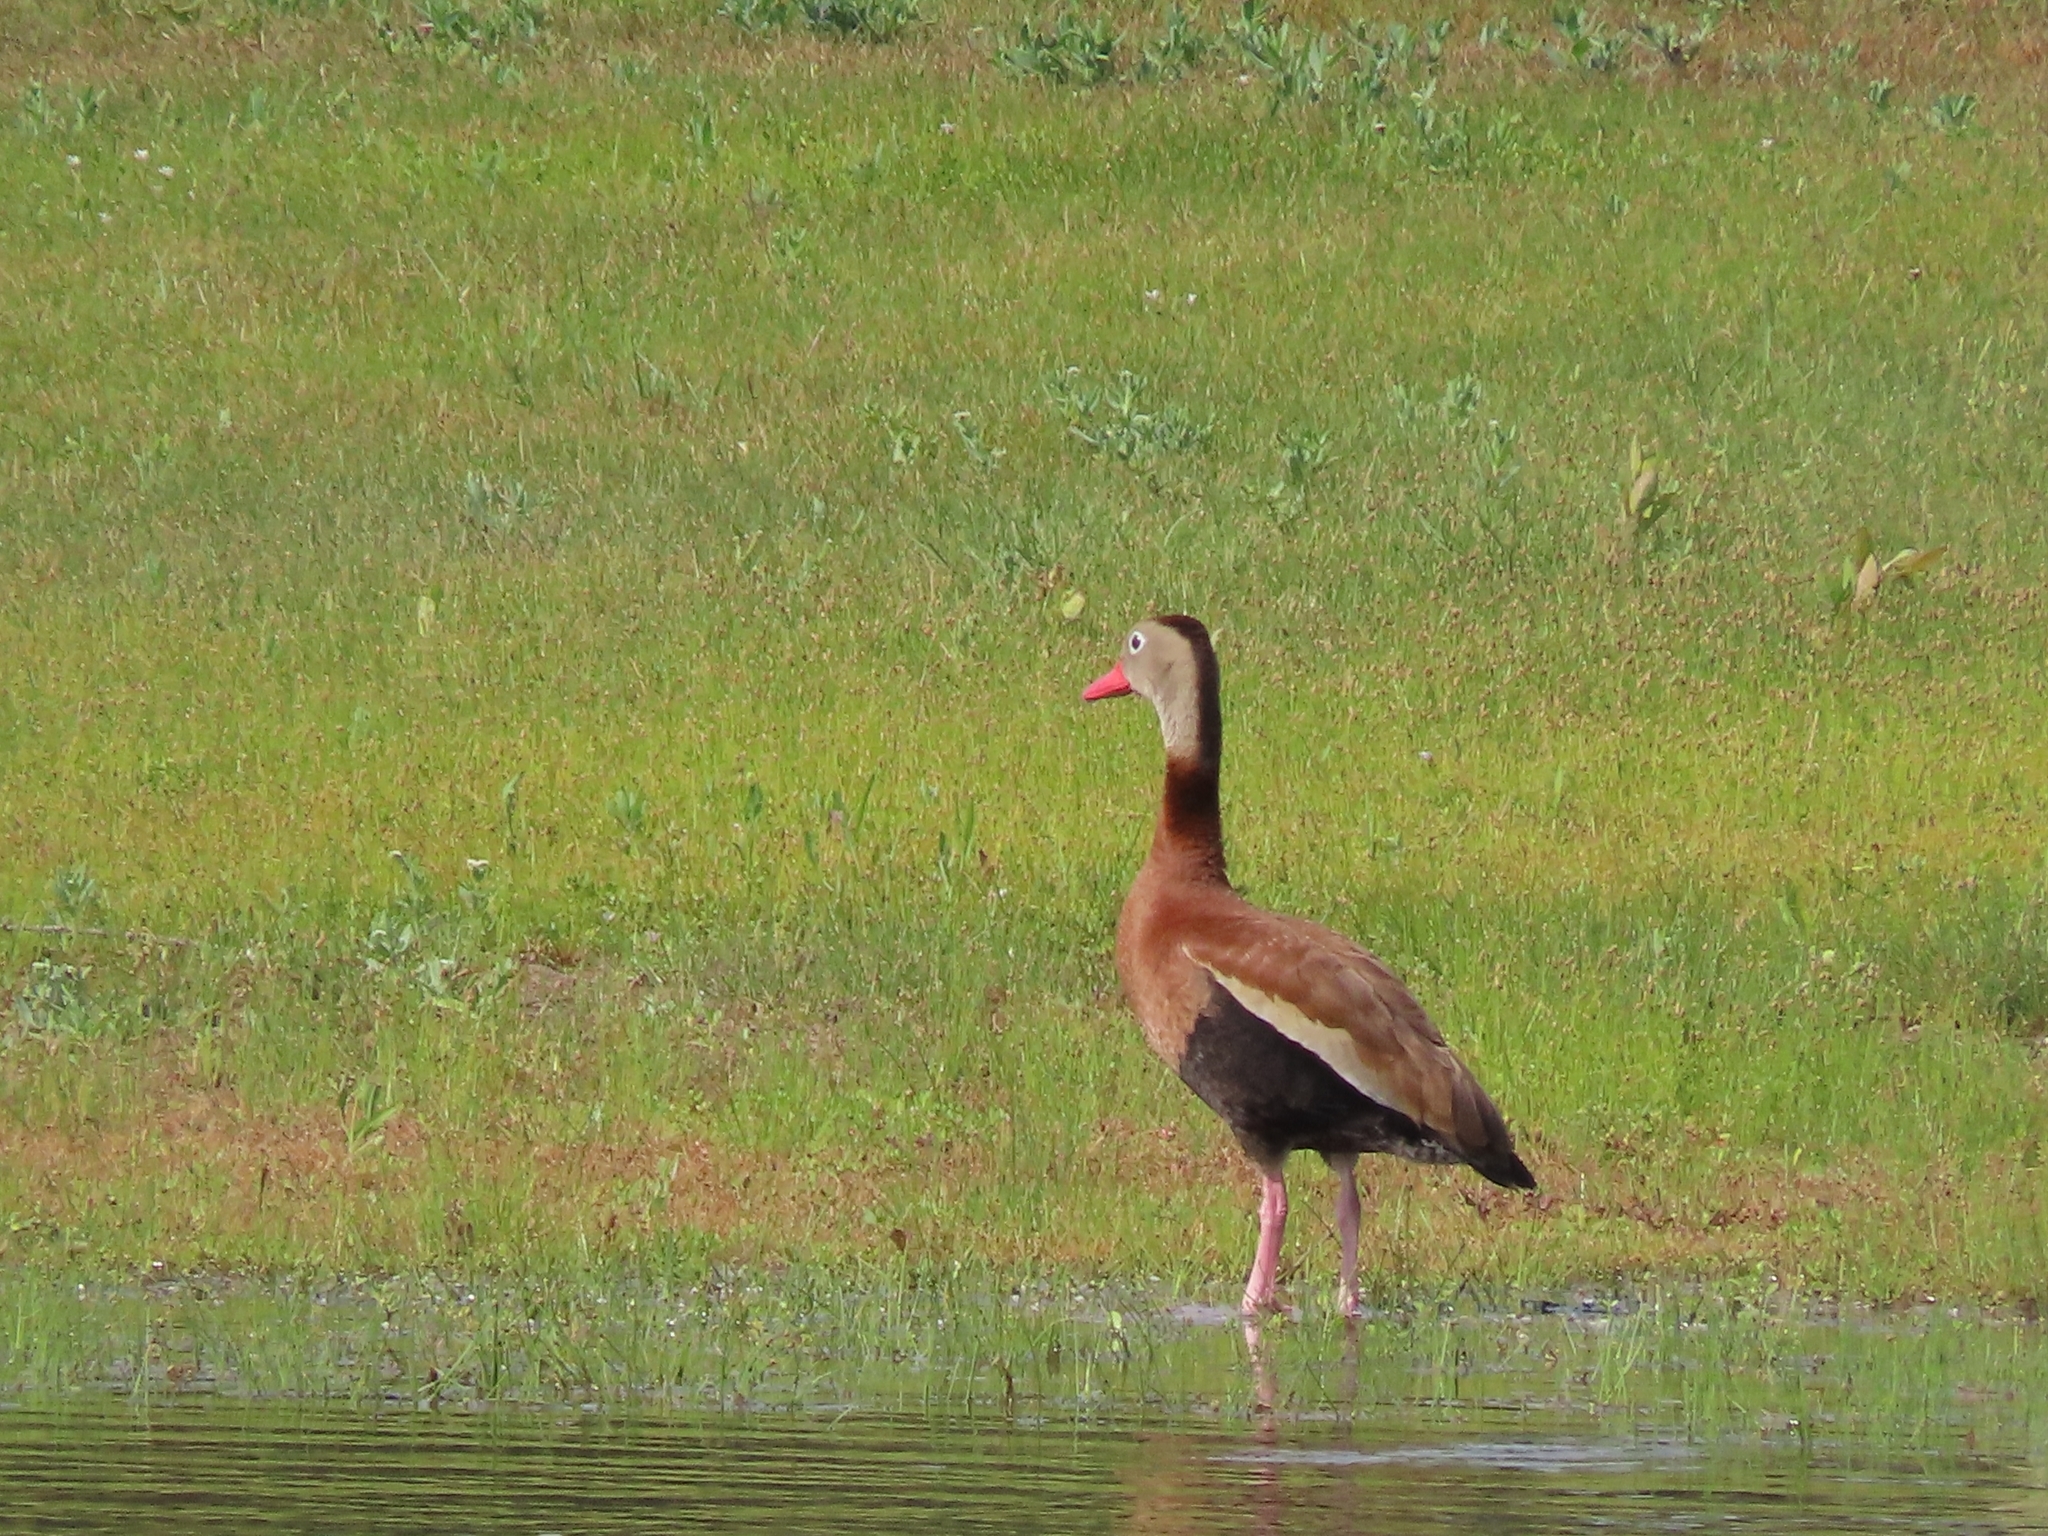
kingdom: Animalia
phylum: Chordata
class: Aves
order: Anseriformes
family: Anatidae
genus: Dendrocygna
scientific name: Dendrocygna autumnalis
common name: Black-bellied whistling duck
